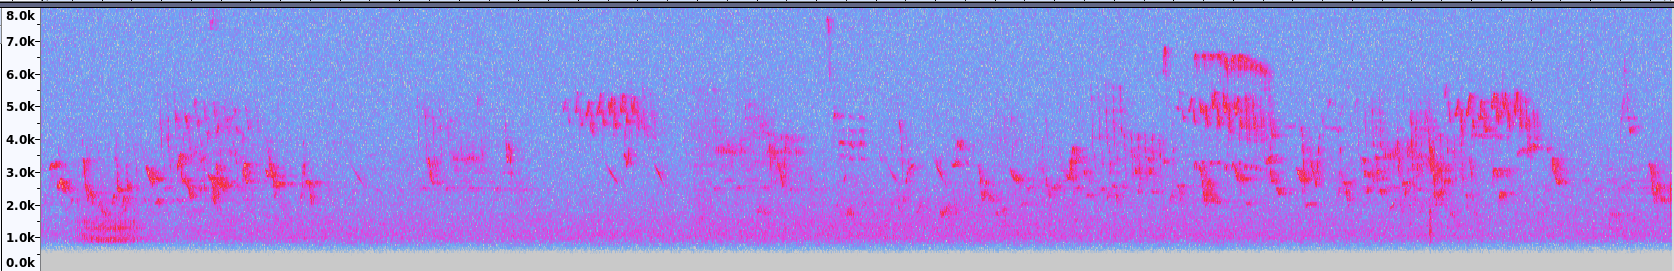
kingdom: Animalia
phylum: Chordata
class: Aves
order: Passeriformes
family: Parulidae
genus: Setophaga
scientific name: Setophaga coronata
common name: Myrtle warbler
